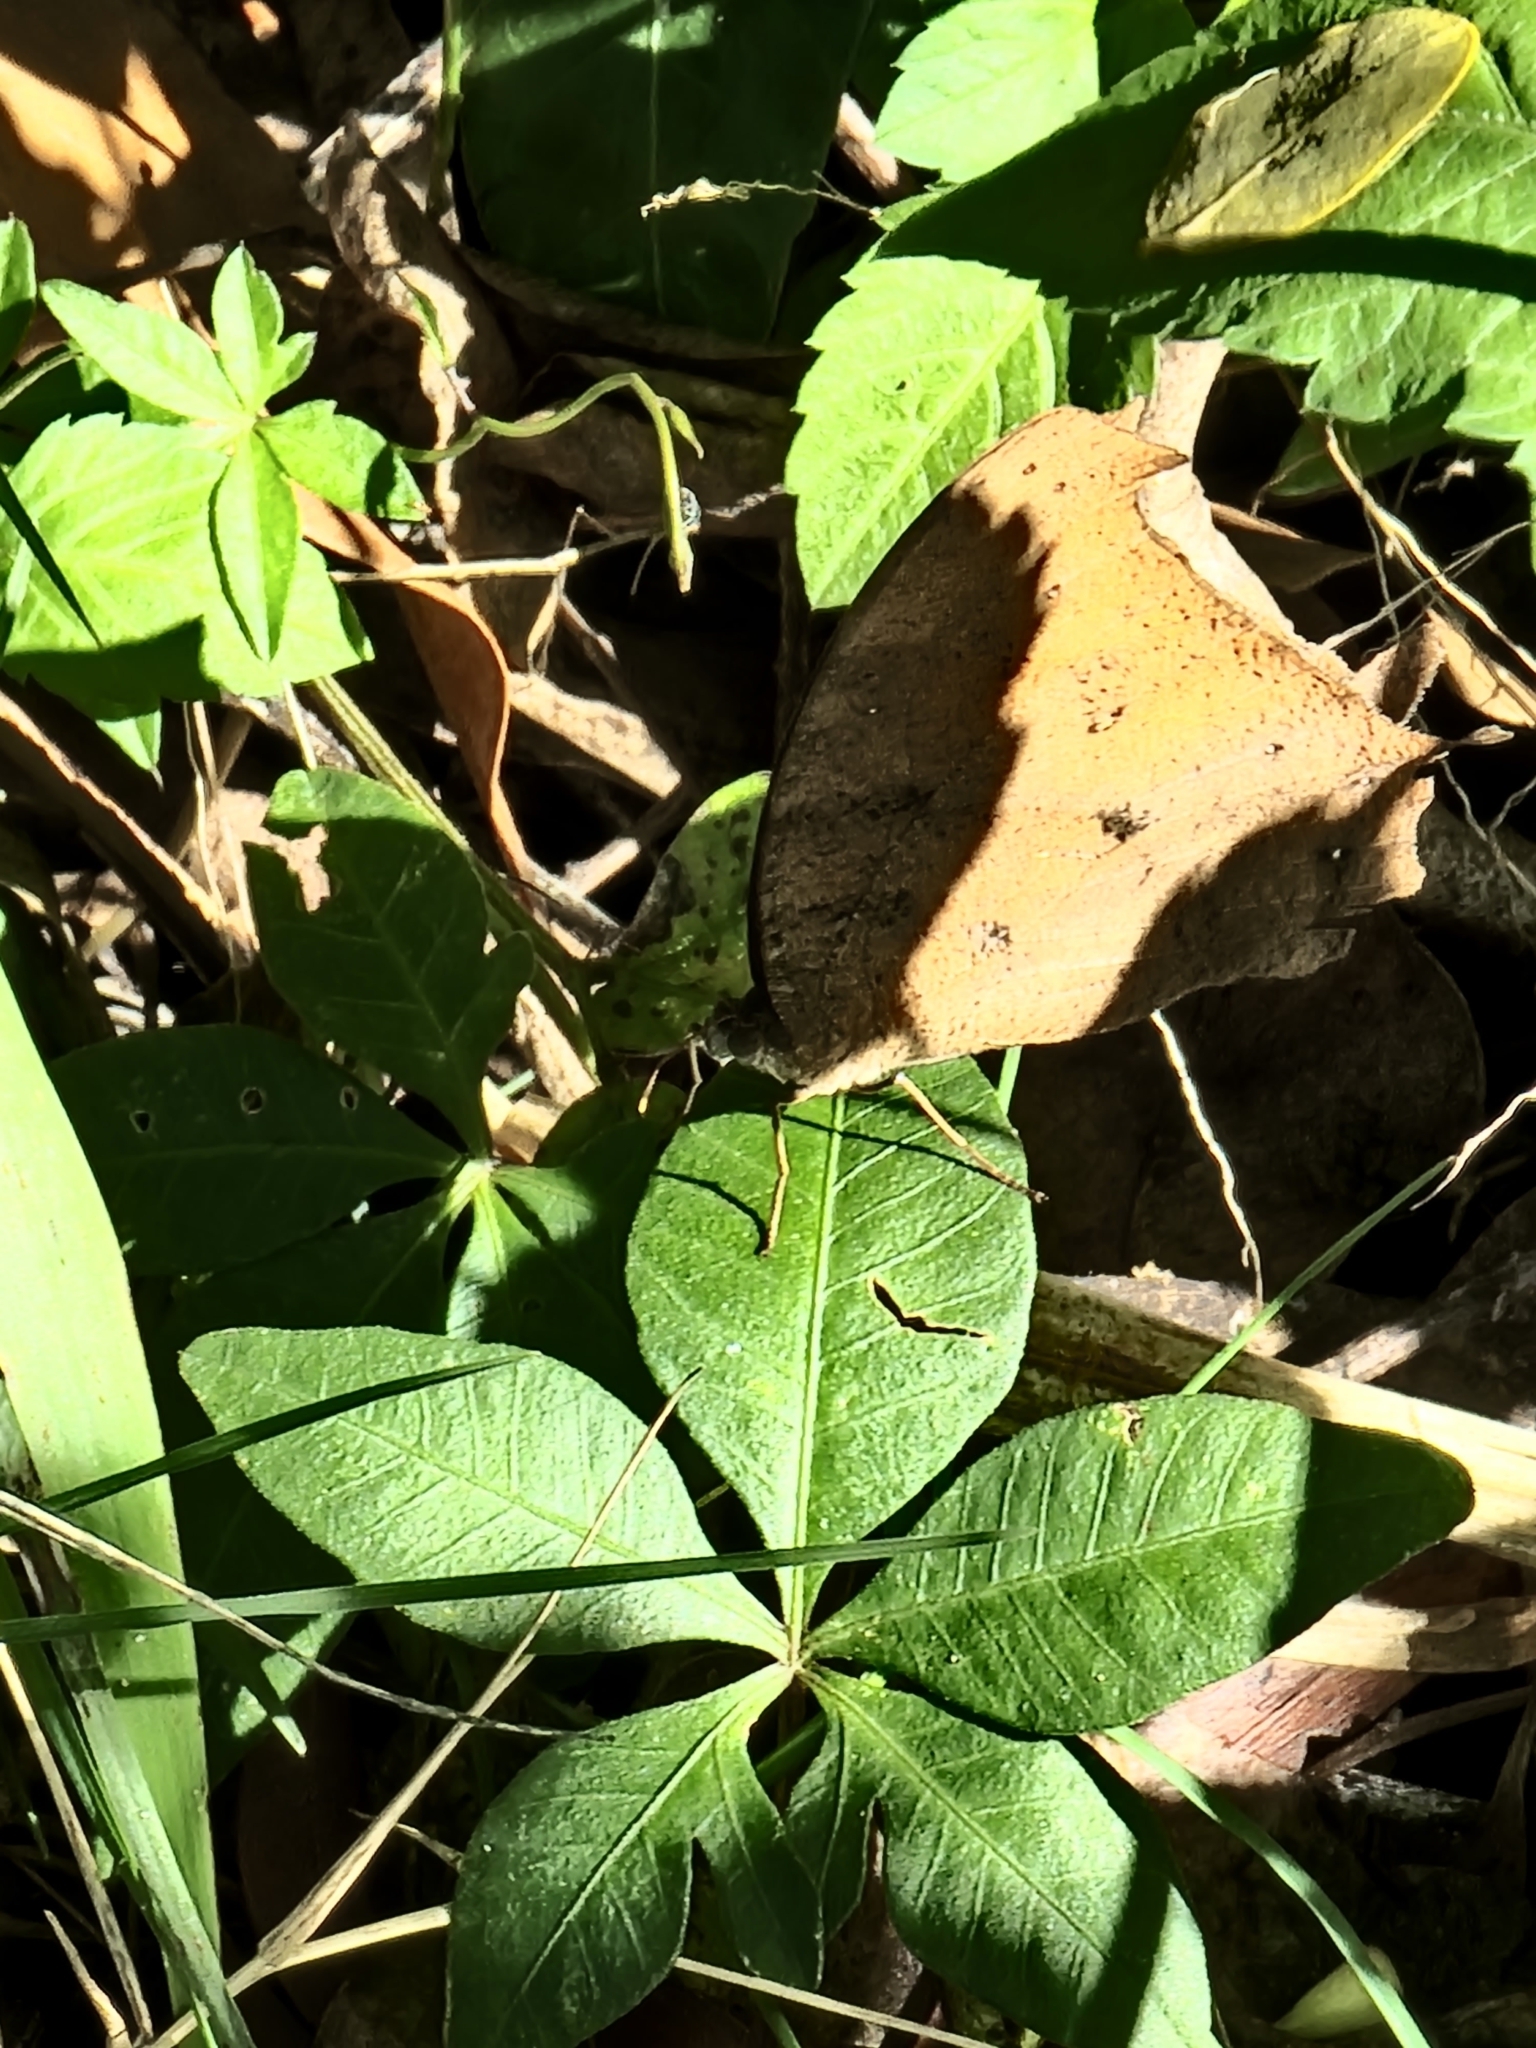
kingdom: Animalia
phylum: Arthropoda
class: Insecta
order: Lepidoptera
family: Nymphalidae
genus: Melanitis
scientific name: Melanitis leda
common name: Twilight brown
